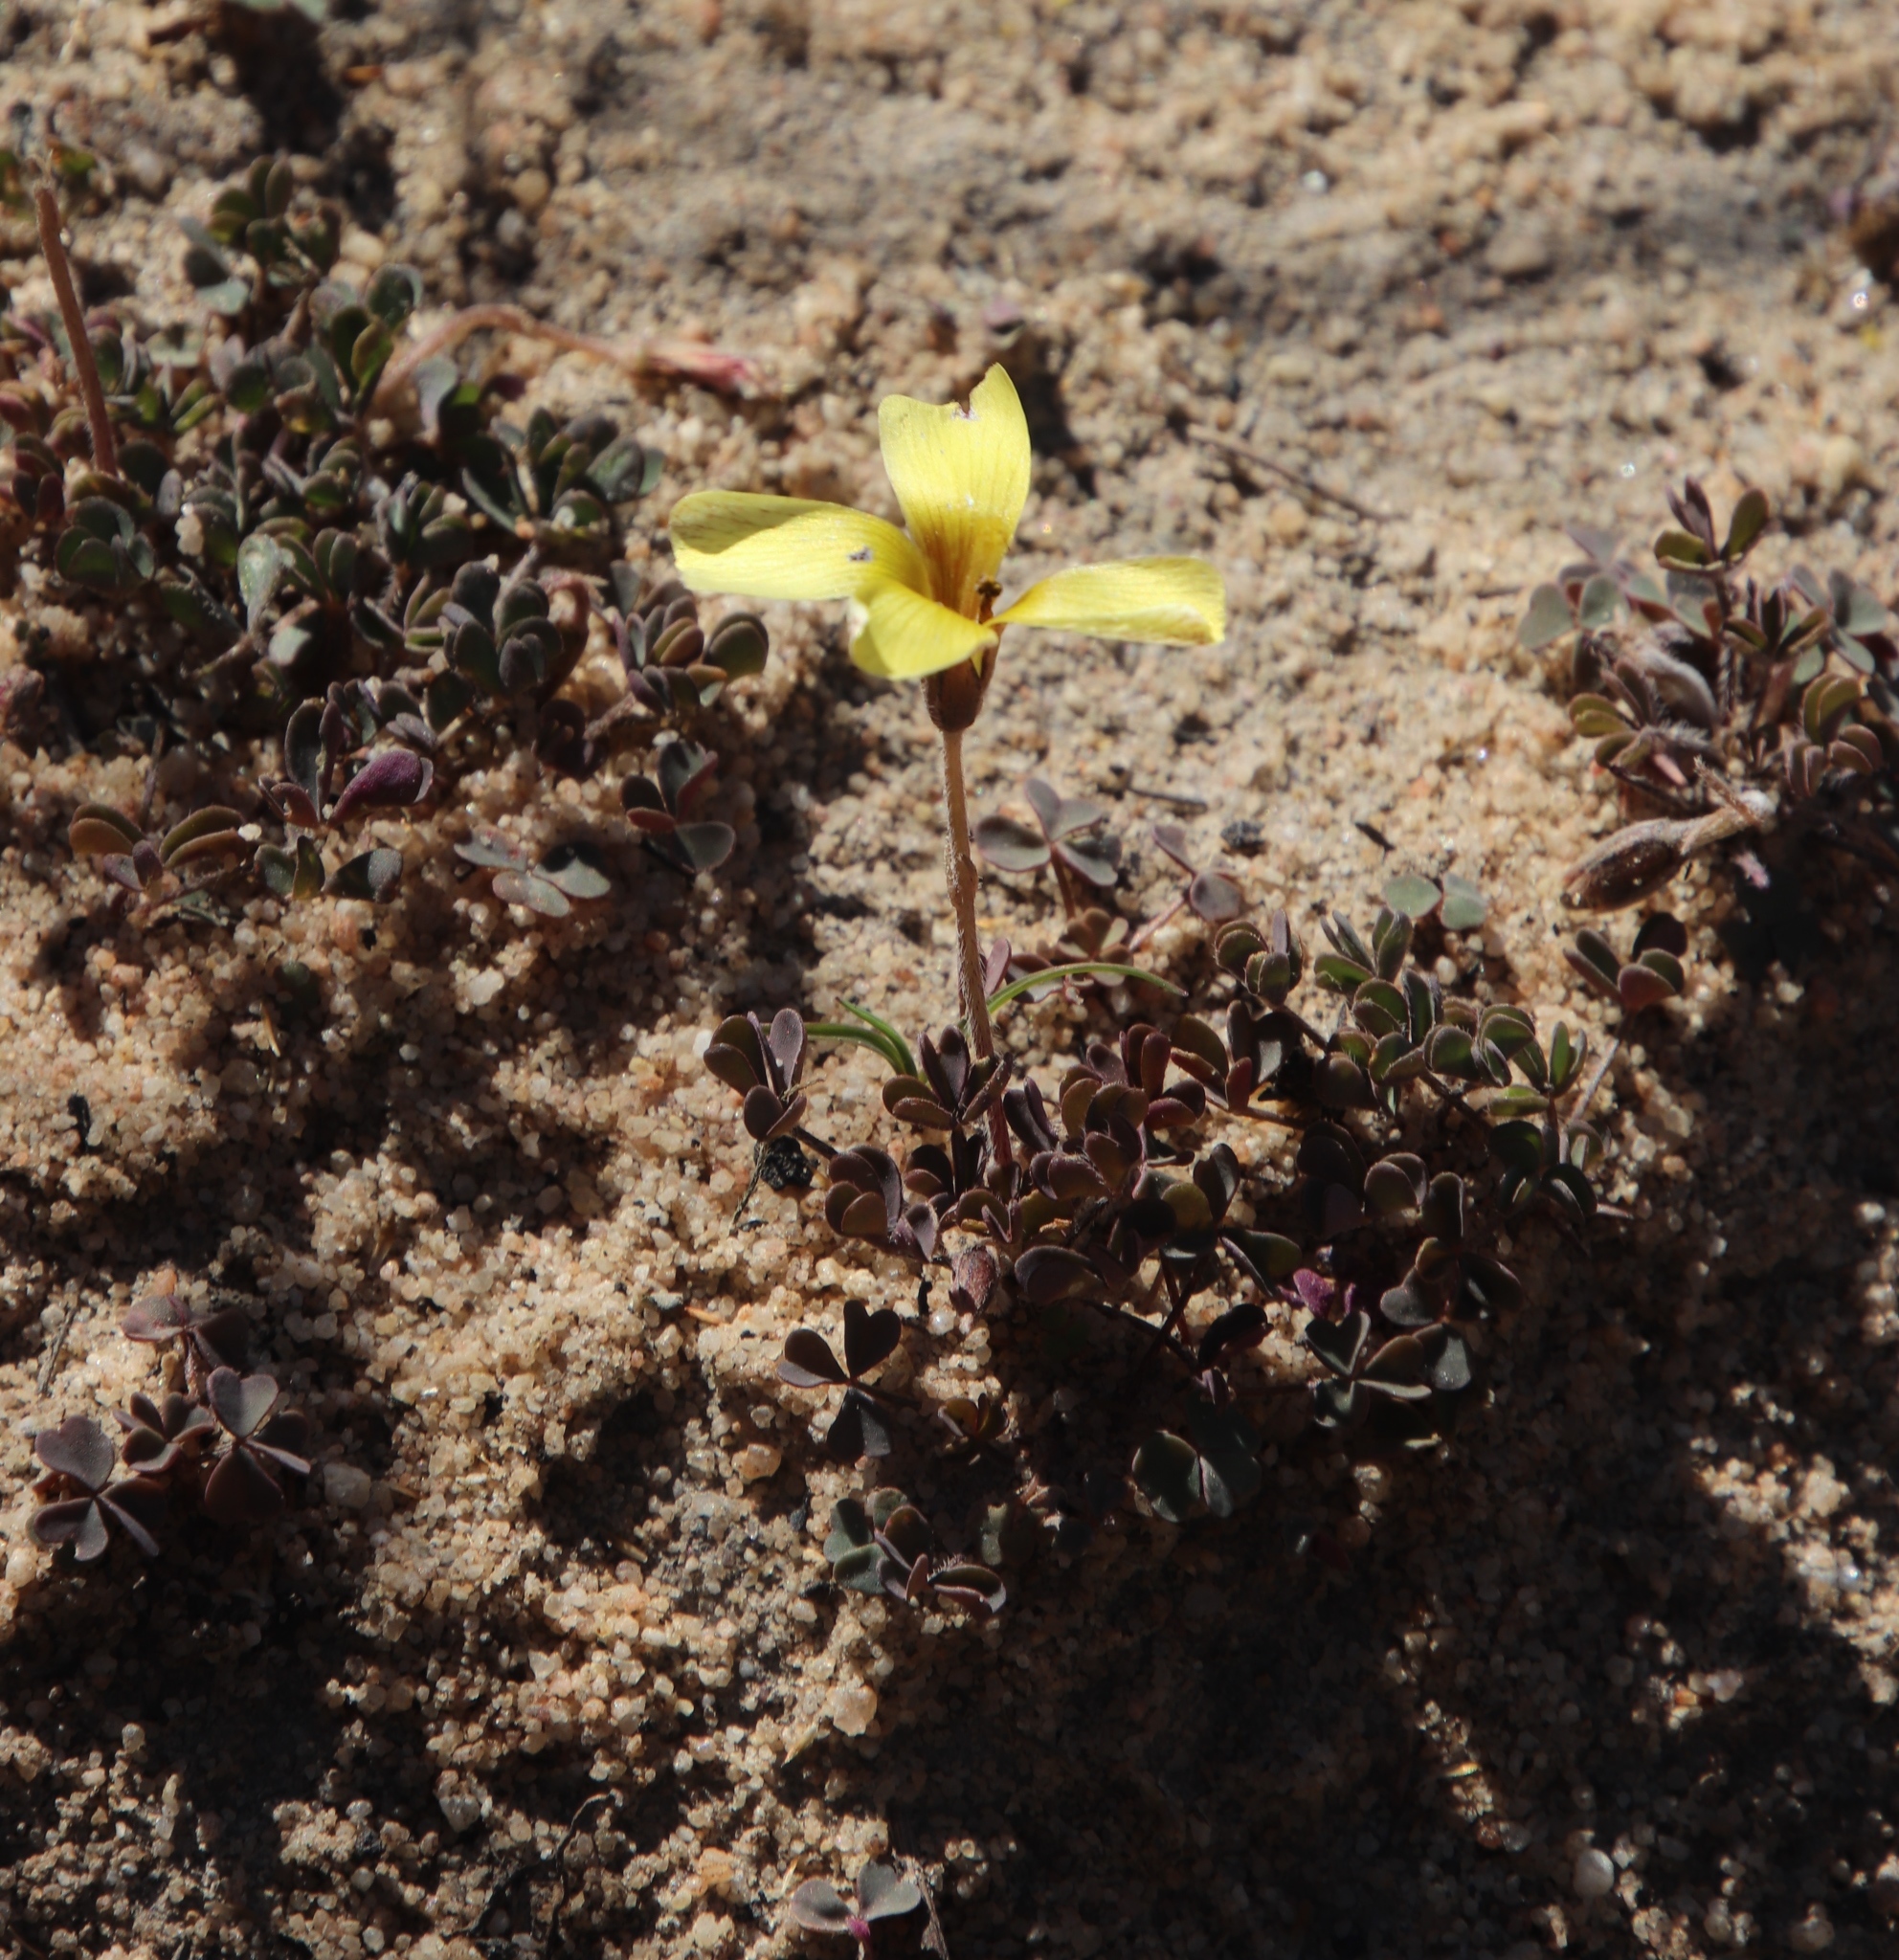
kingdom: Plantae
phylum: Tracheophyta
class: Magnoliopsida
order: Oxalidales
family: Oxalidaceae
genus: Oxalis
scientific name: Oxalis obtusa
